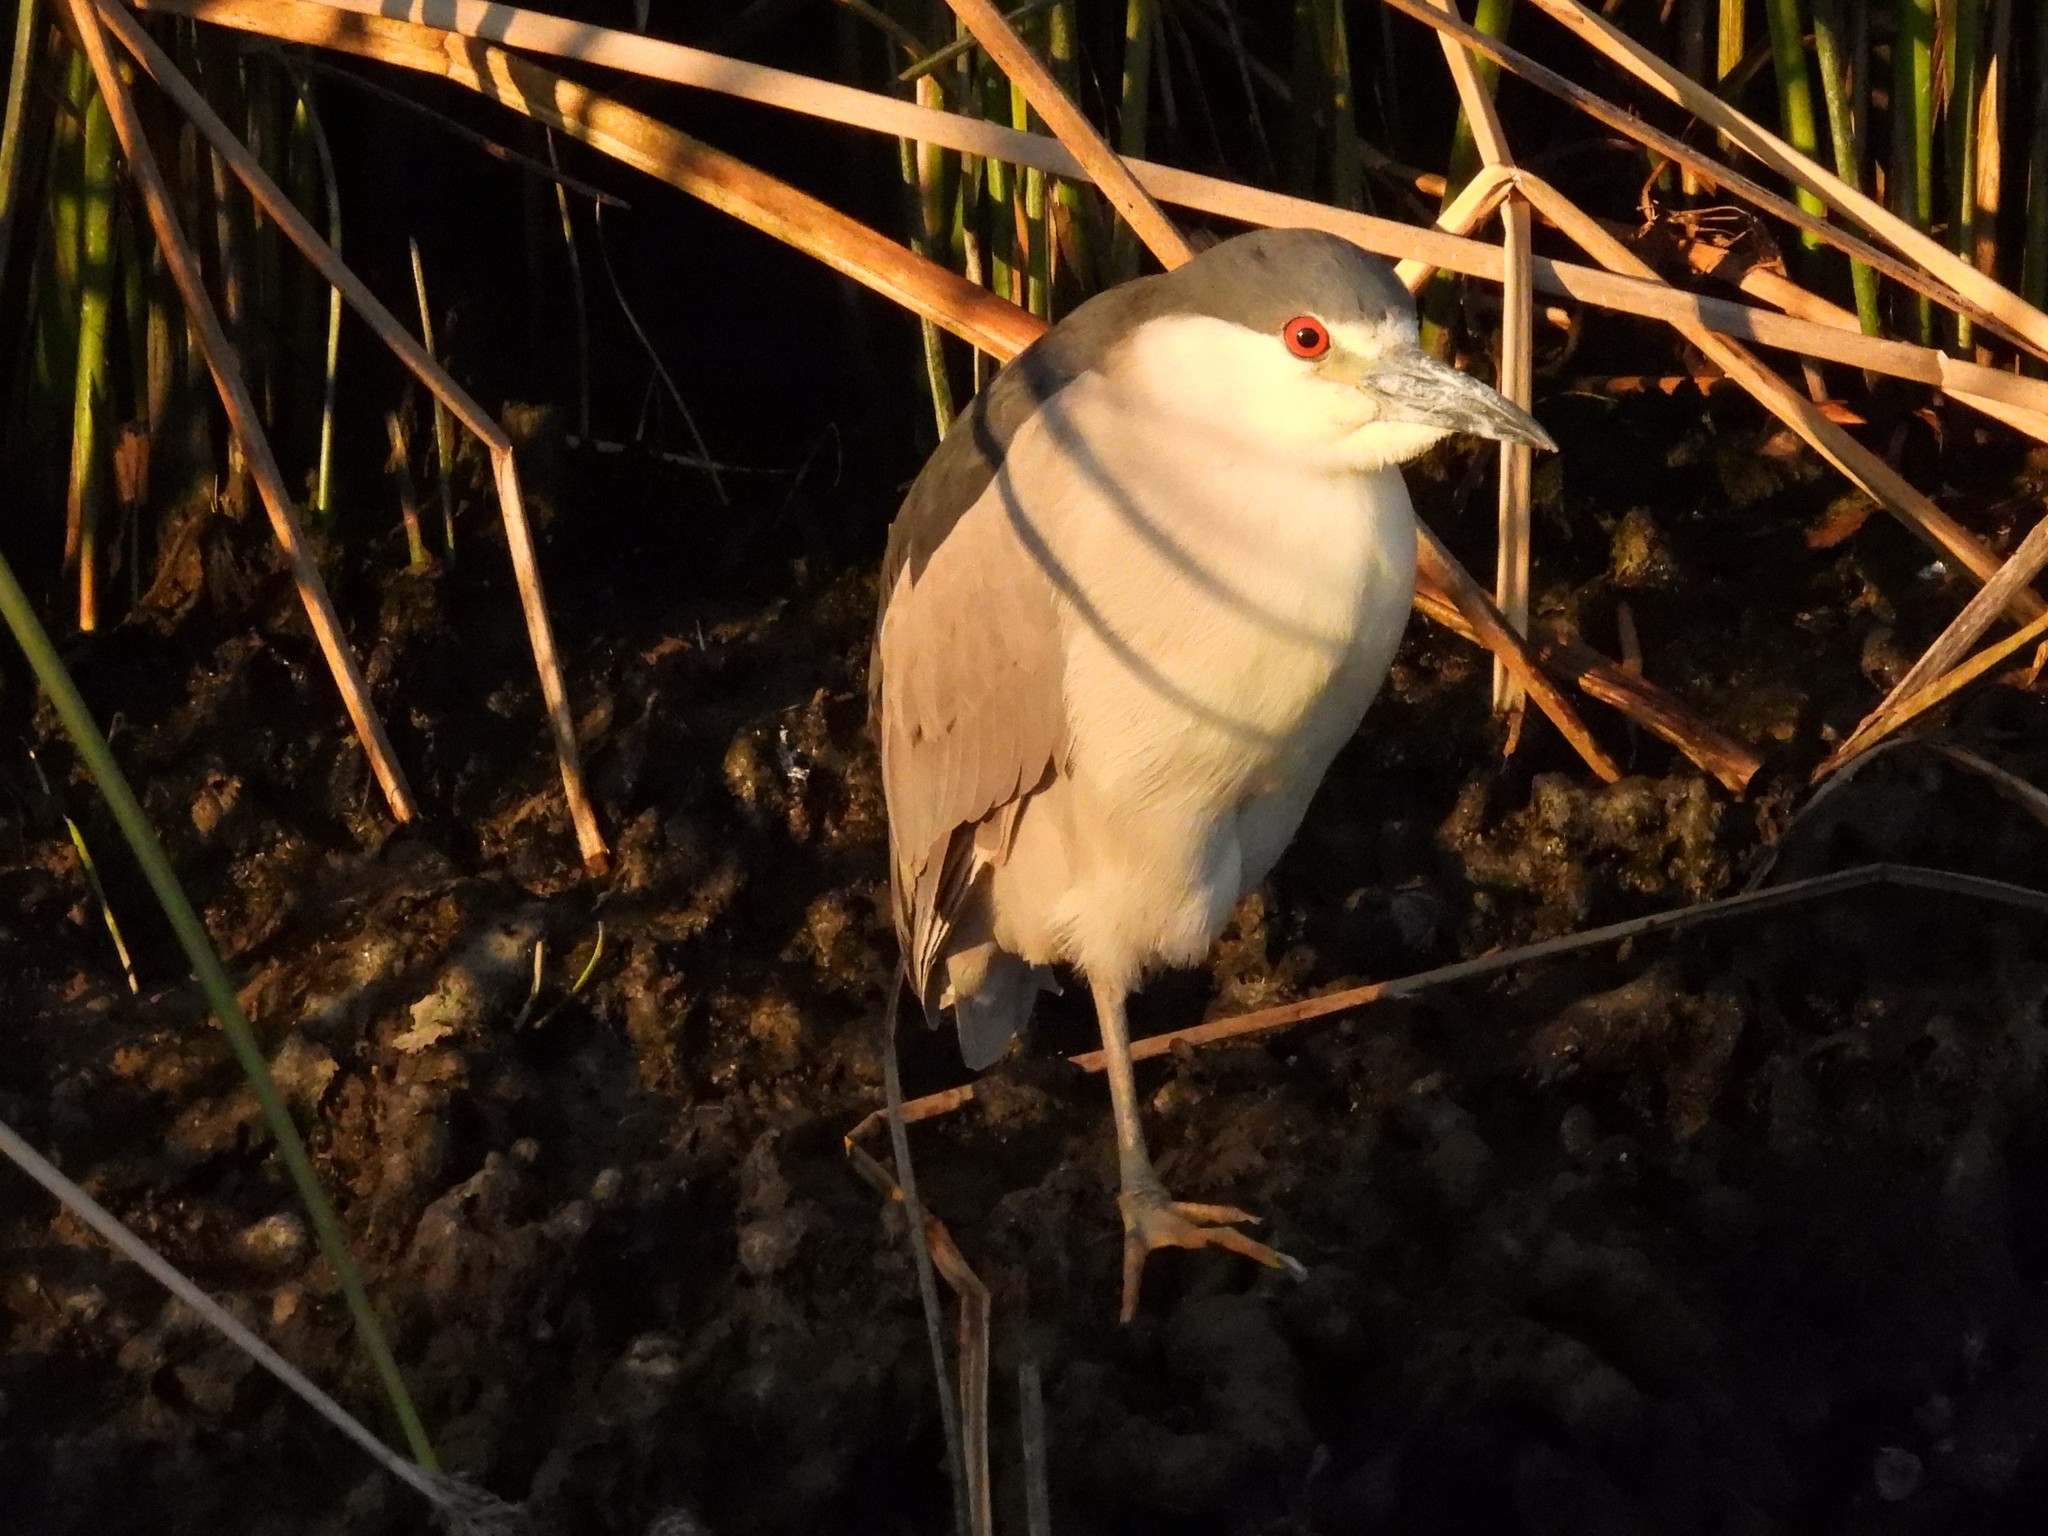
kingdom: Animalia
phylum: Chordata
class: Aves
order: Pelecaniformes
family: Ardeidae
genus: Nycticorax
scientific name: Nycticorax nycticorax
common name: Black-crowned night heron
